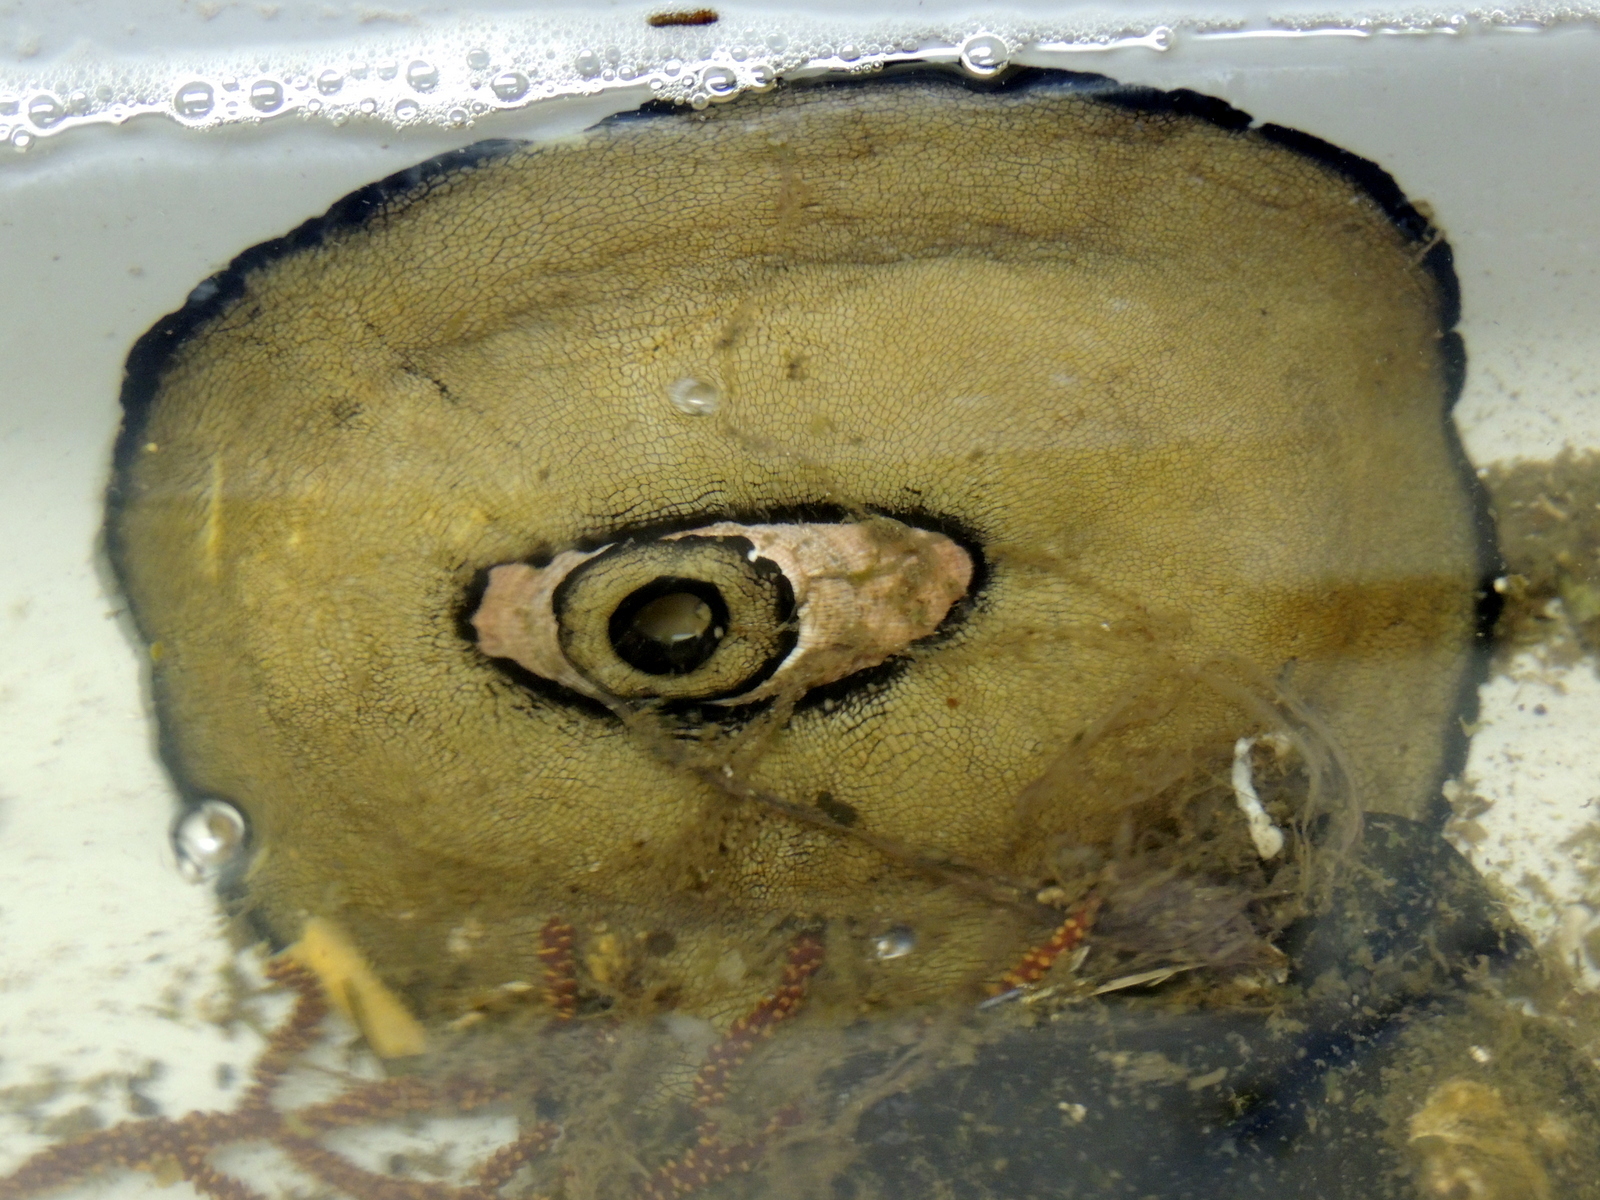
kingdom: Animalia
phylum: Mollusca
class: Gastropoda
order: Lepetellida
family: Fissurellidae
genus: Megathura
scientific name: Megathura crenulata
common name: Giant keyhole limpet
